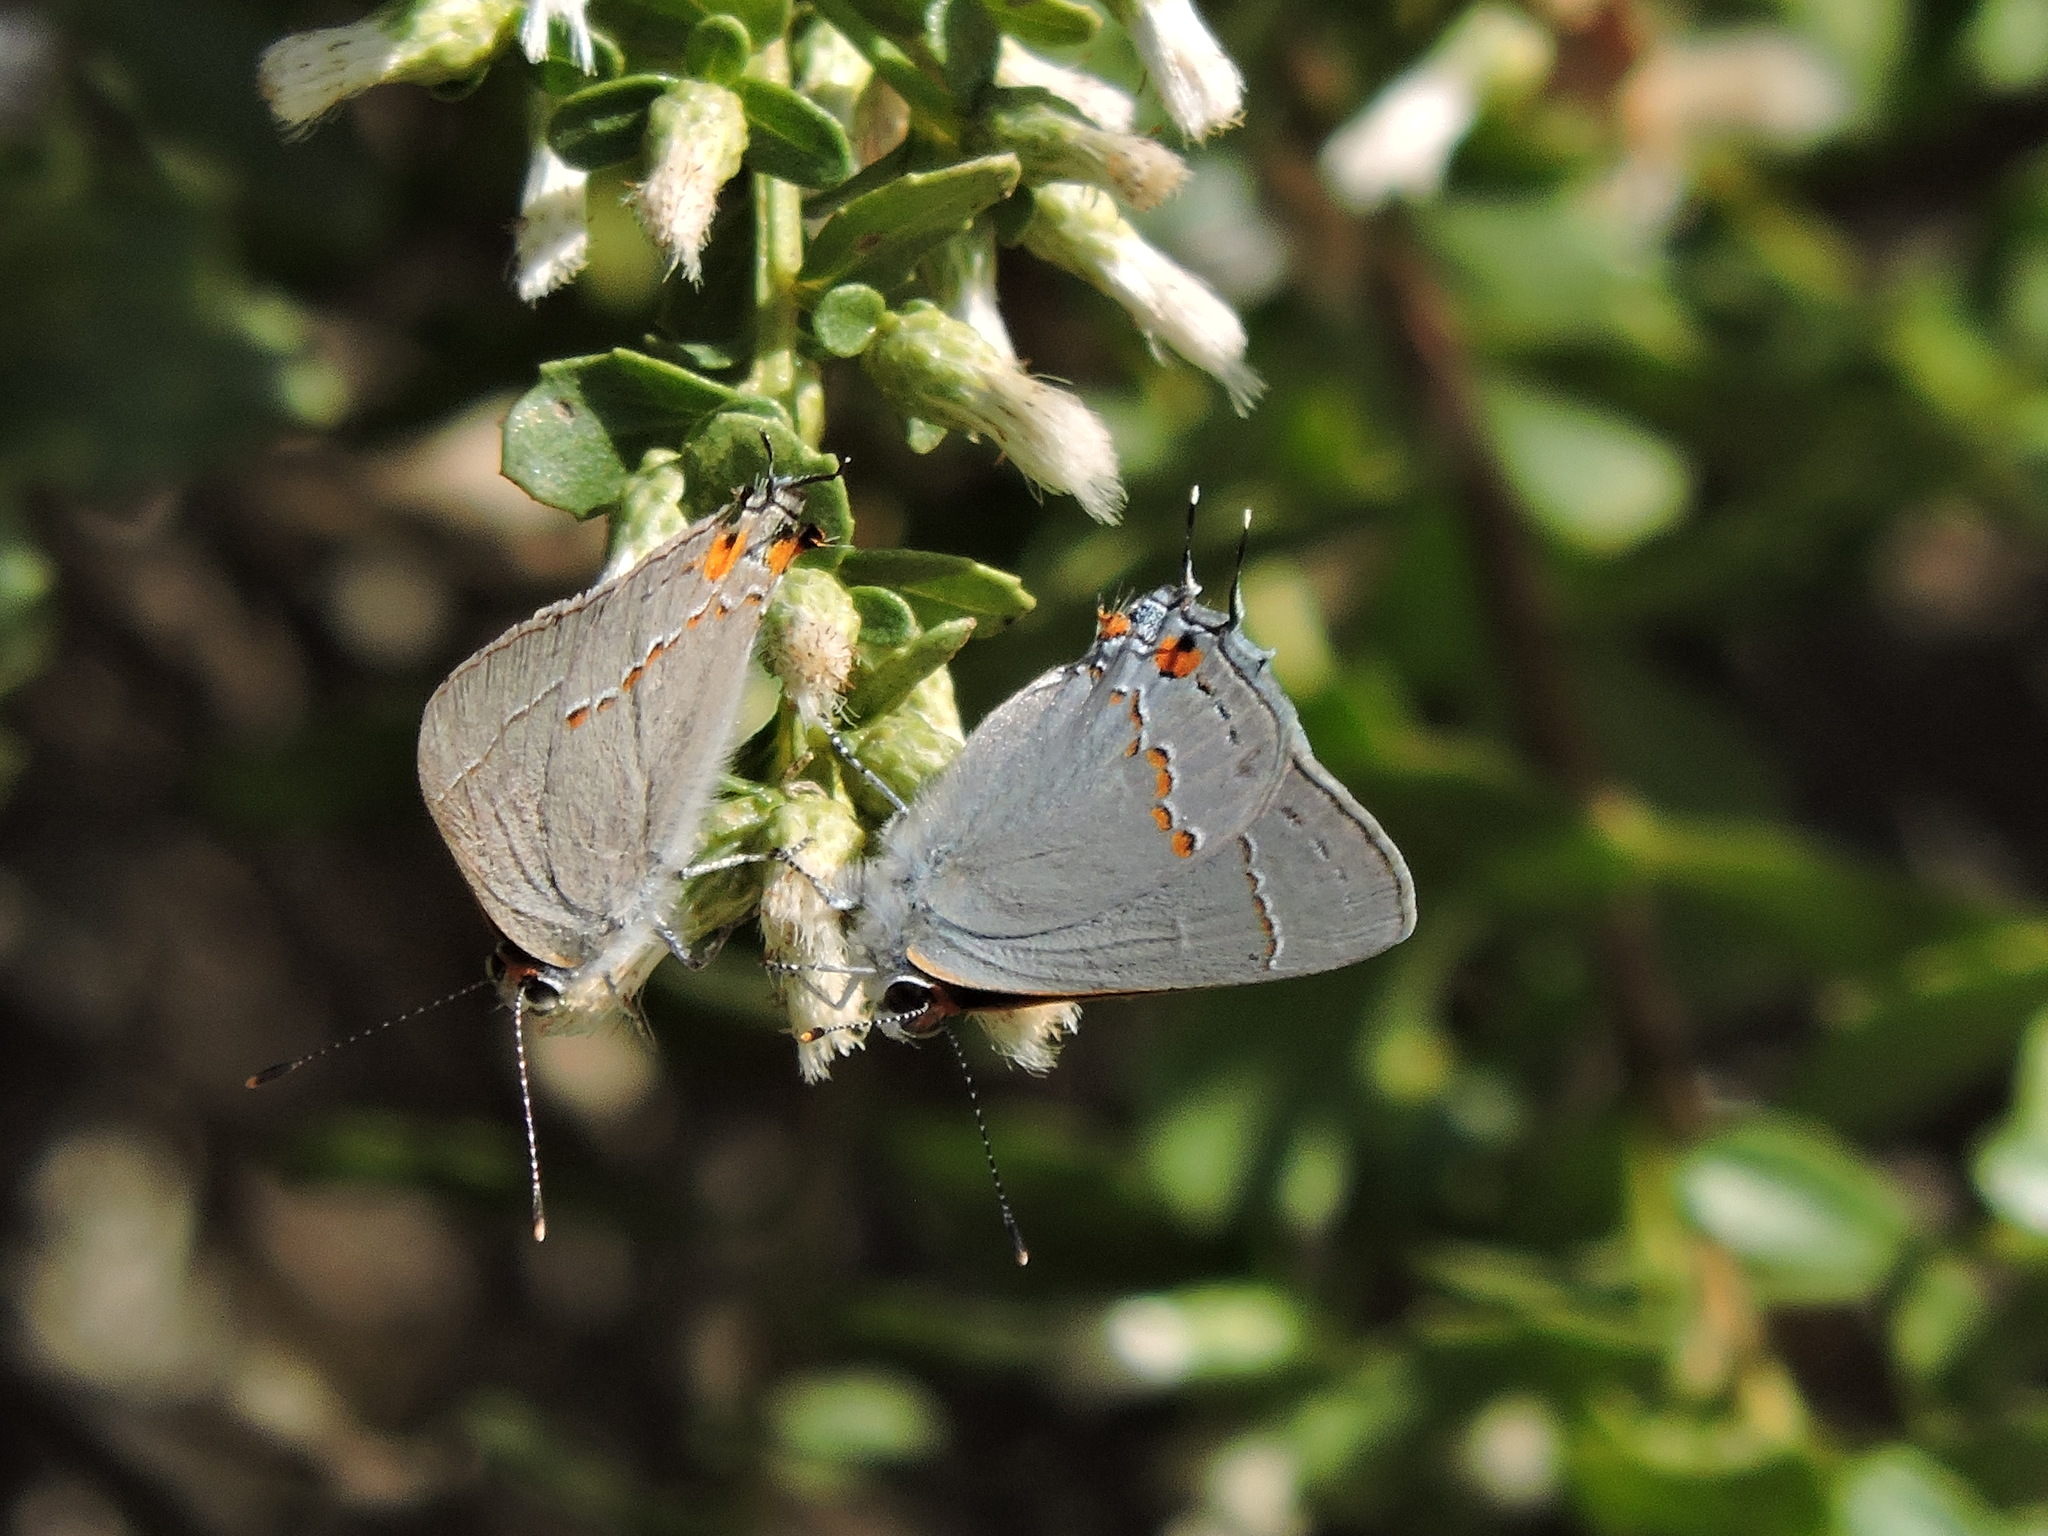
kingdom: Animalia
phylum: Arthropoda
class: Insecta
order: Lepidoptera
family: Lycaenidae
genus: Strymon
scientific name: Strymon melinus
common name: Gray hairstreak
